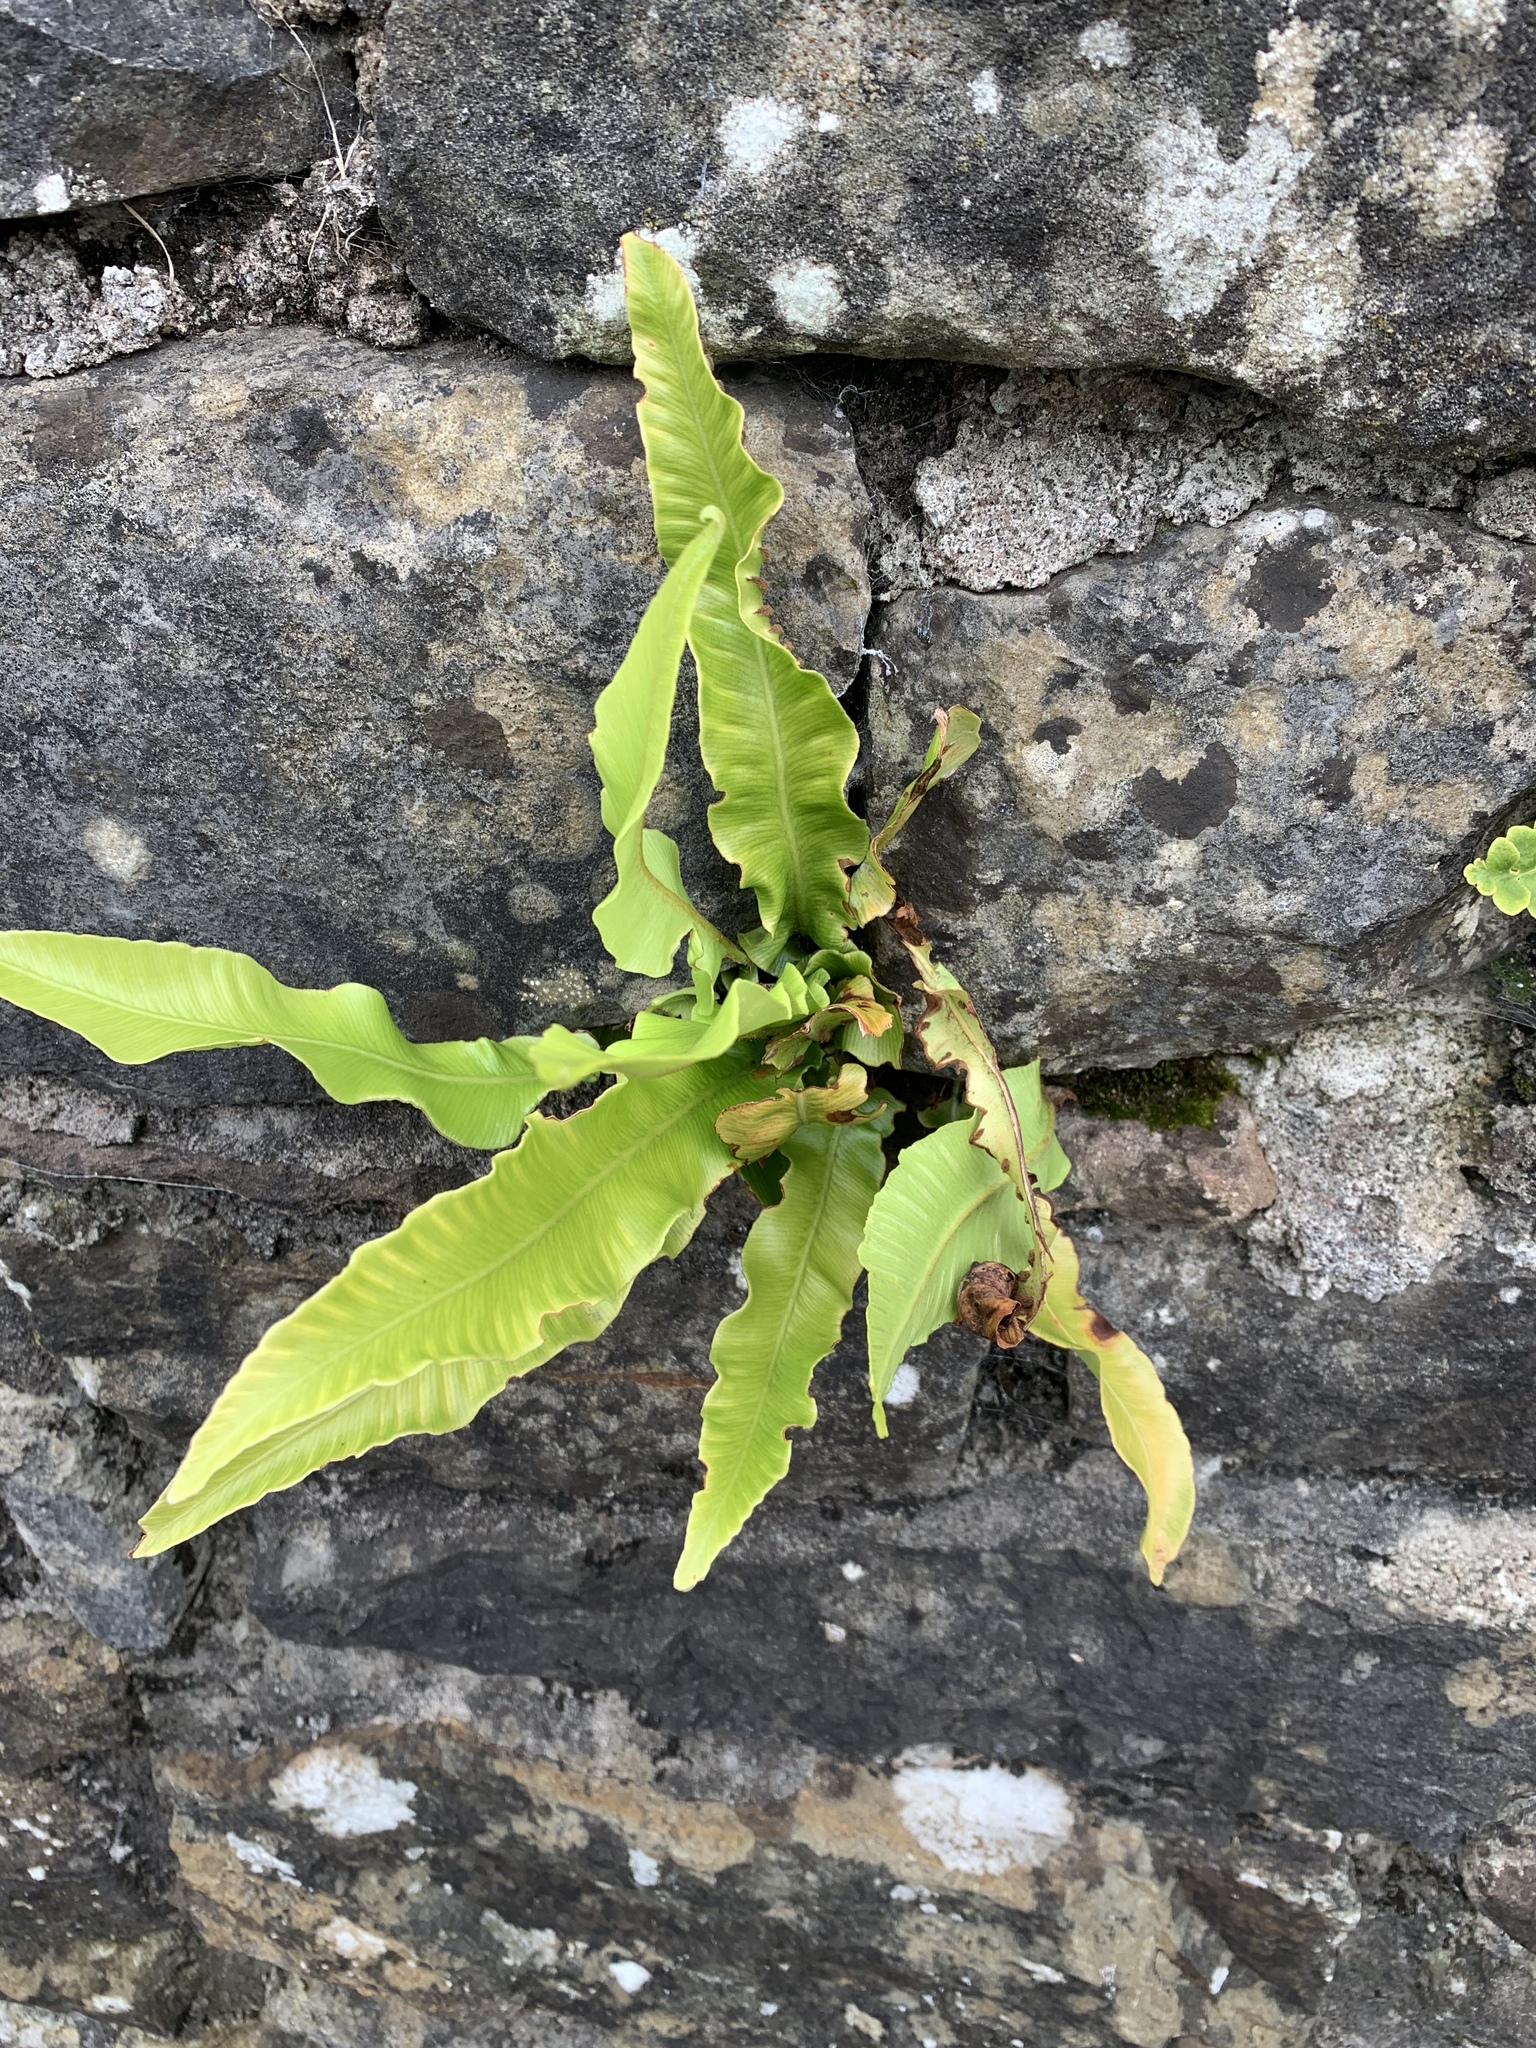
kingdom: Plantae
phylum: Tracheophyta
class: Polypodiopsida
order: Polypodiales
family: Aspleniaceae
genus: Asplenium
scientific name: Asplenium scolopendrium
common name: Hart's-tongue fern
